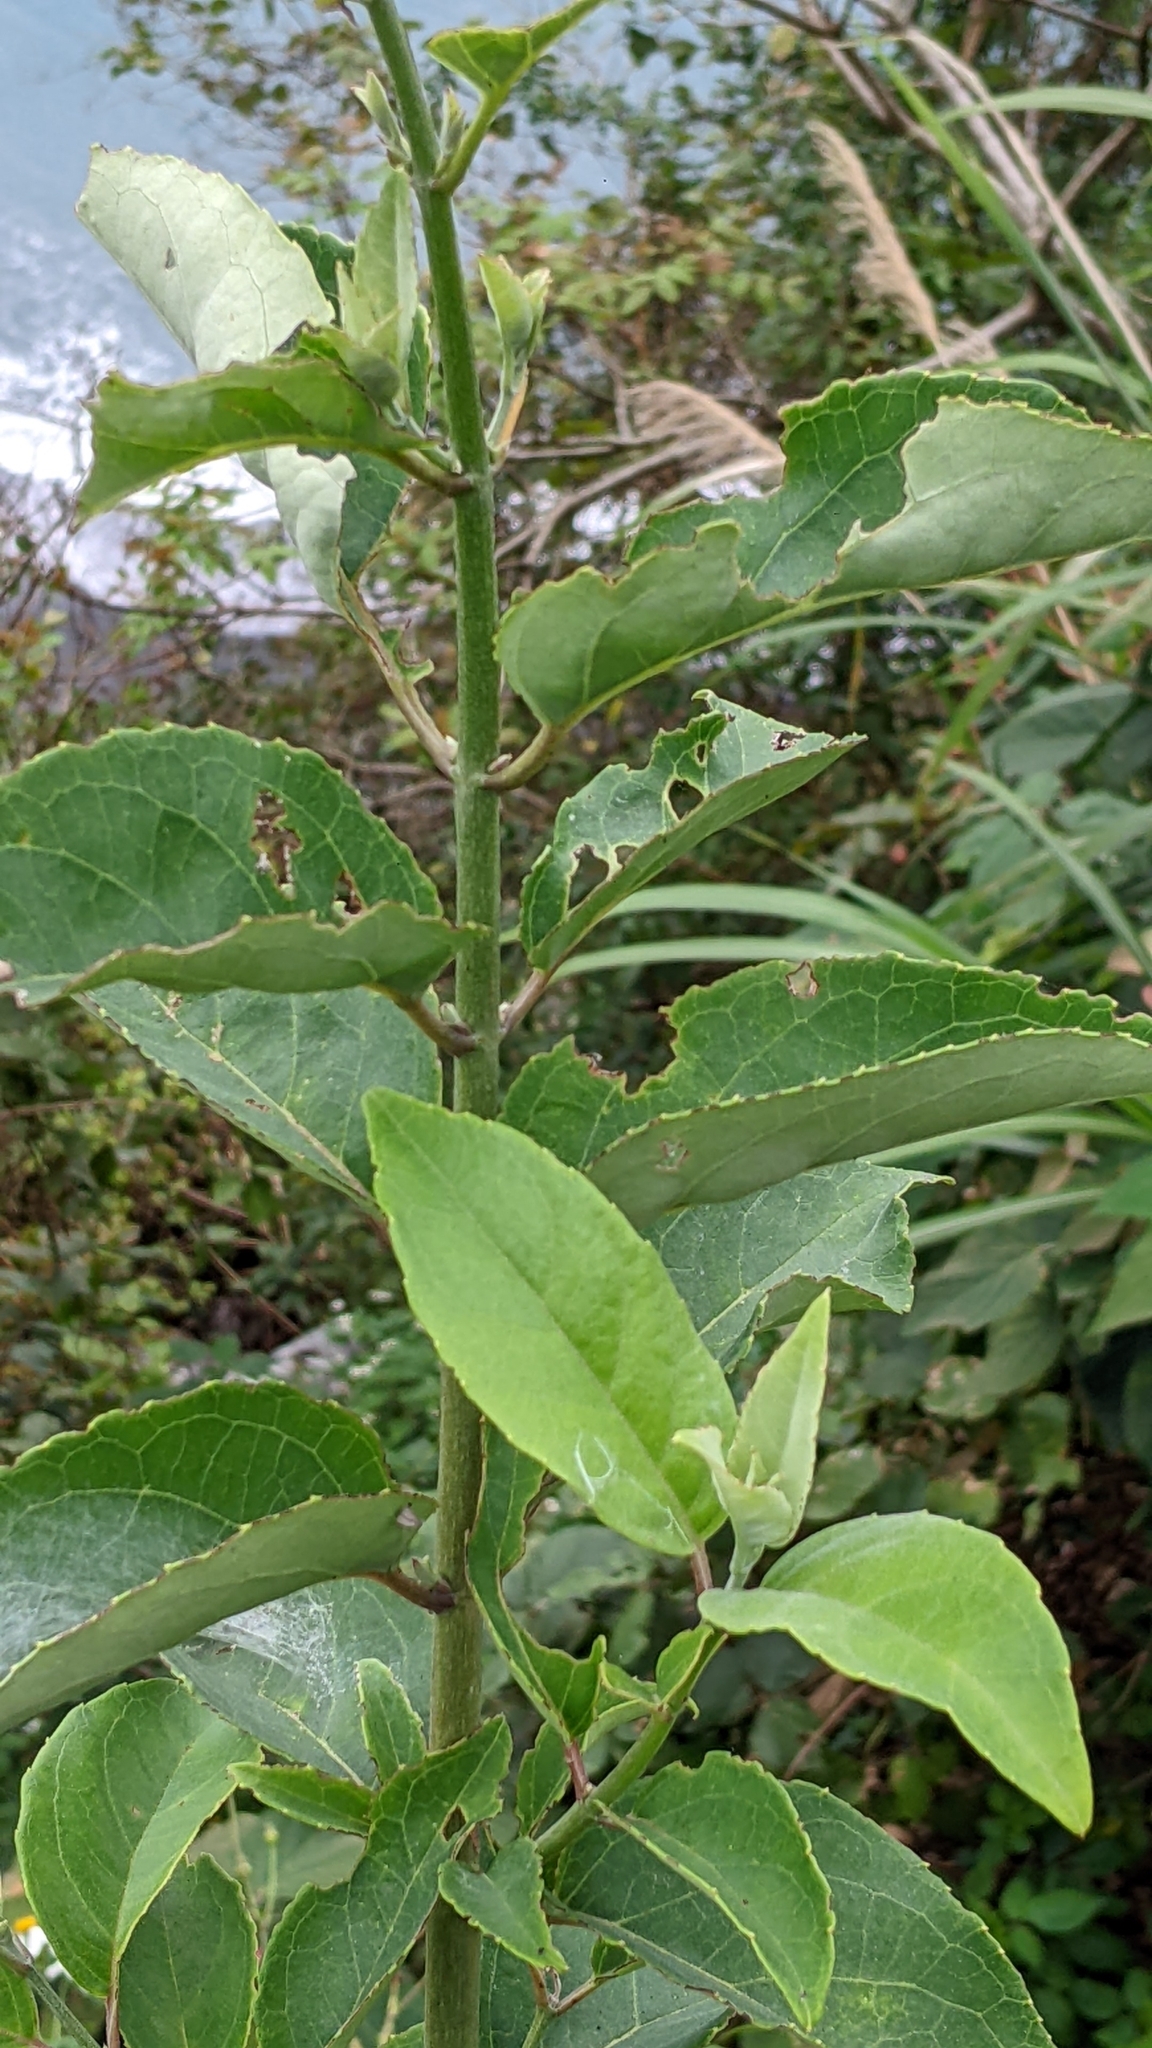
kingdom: Plantae
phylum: Tracheophyta
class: Magnoliopsida
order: Cornales
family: Hydrangeaceae
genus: Deutzia
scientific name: Deutzia pulchra
